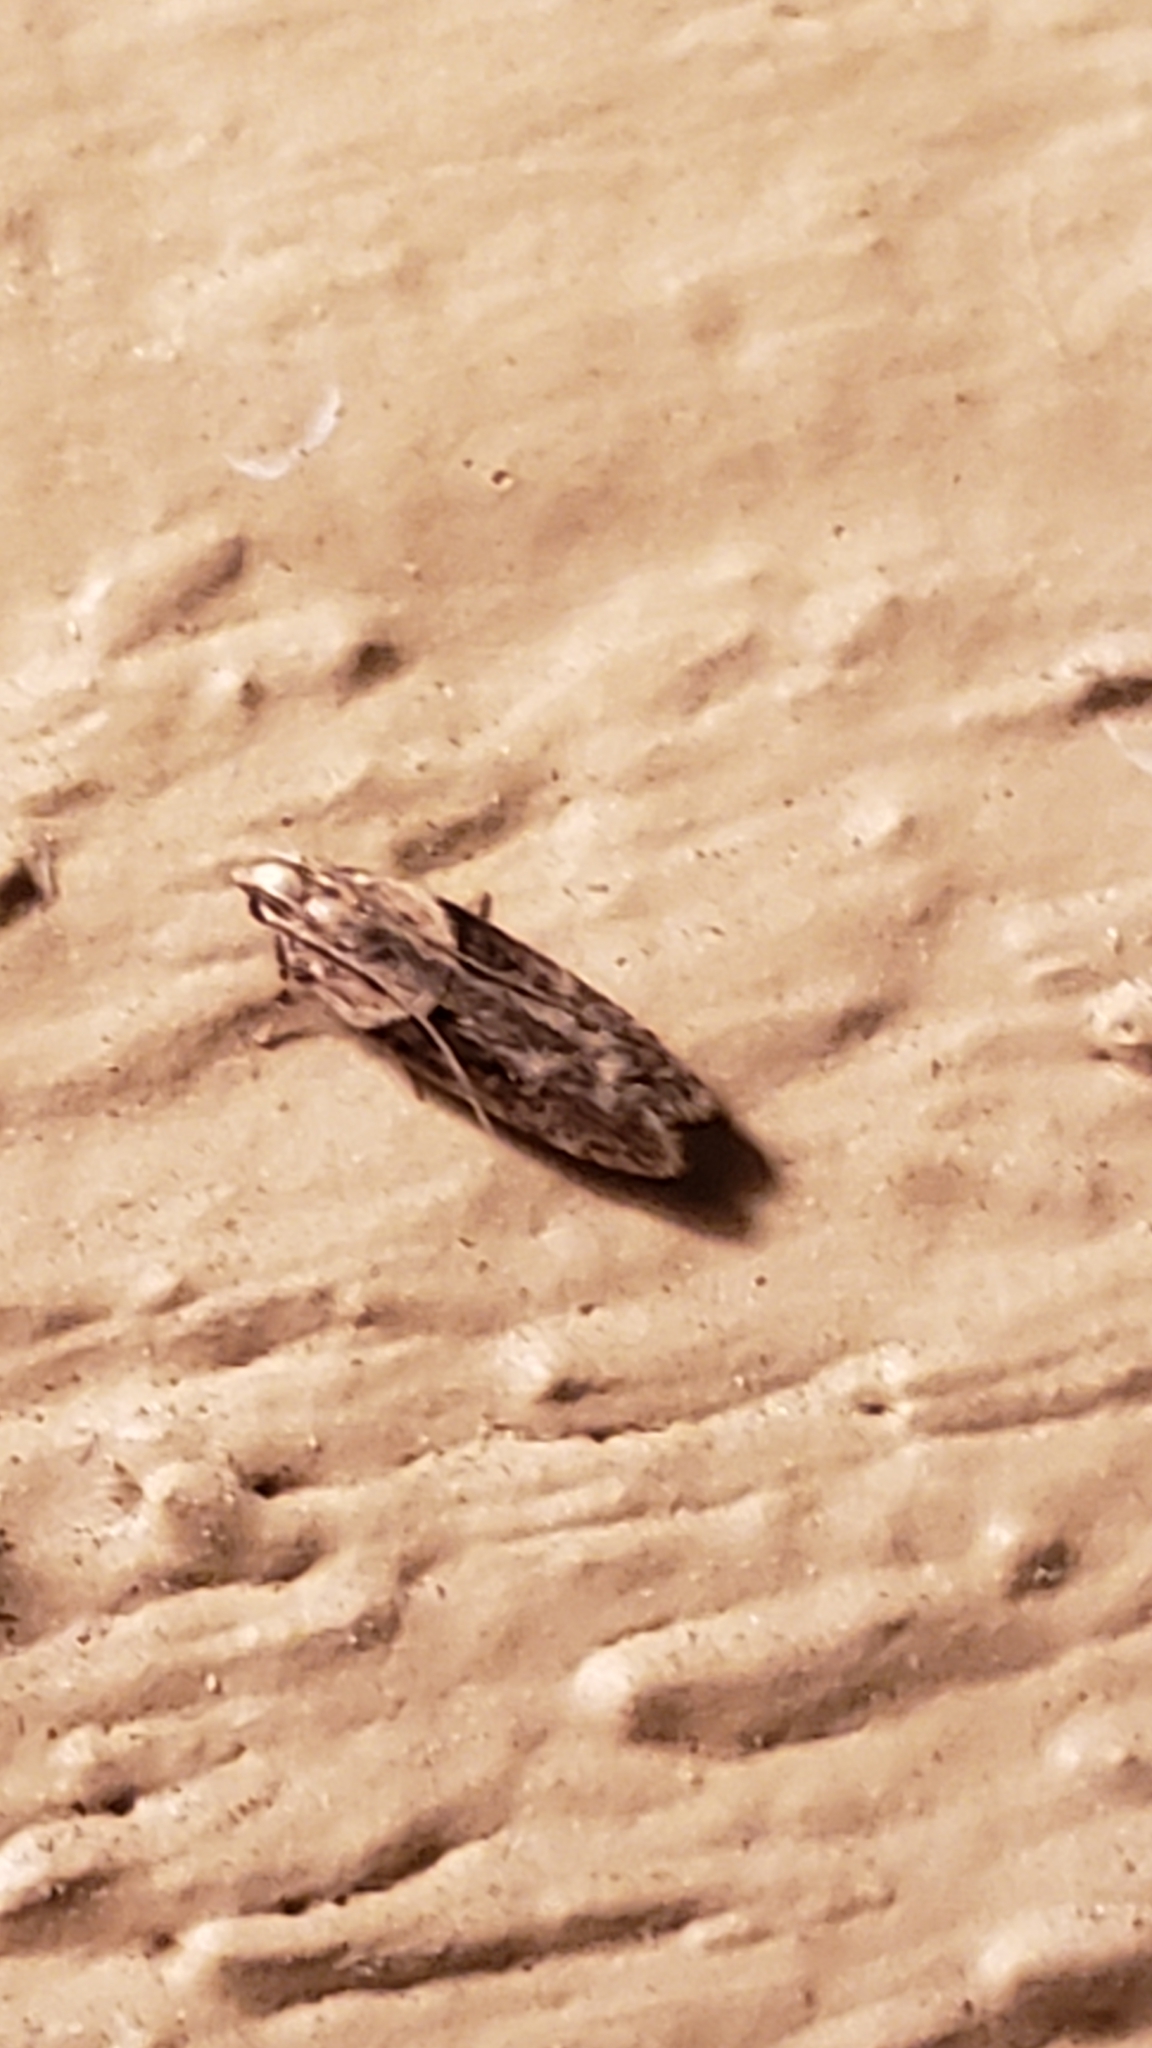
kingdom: Animalia
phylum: Arthropoda
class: Insecta
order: Lepidoptera
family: Gelechiidae
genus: Chionodes
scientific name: Chionodes mediofuscella
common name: Black-smudged chionodes moth
